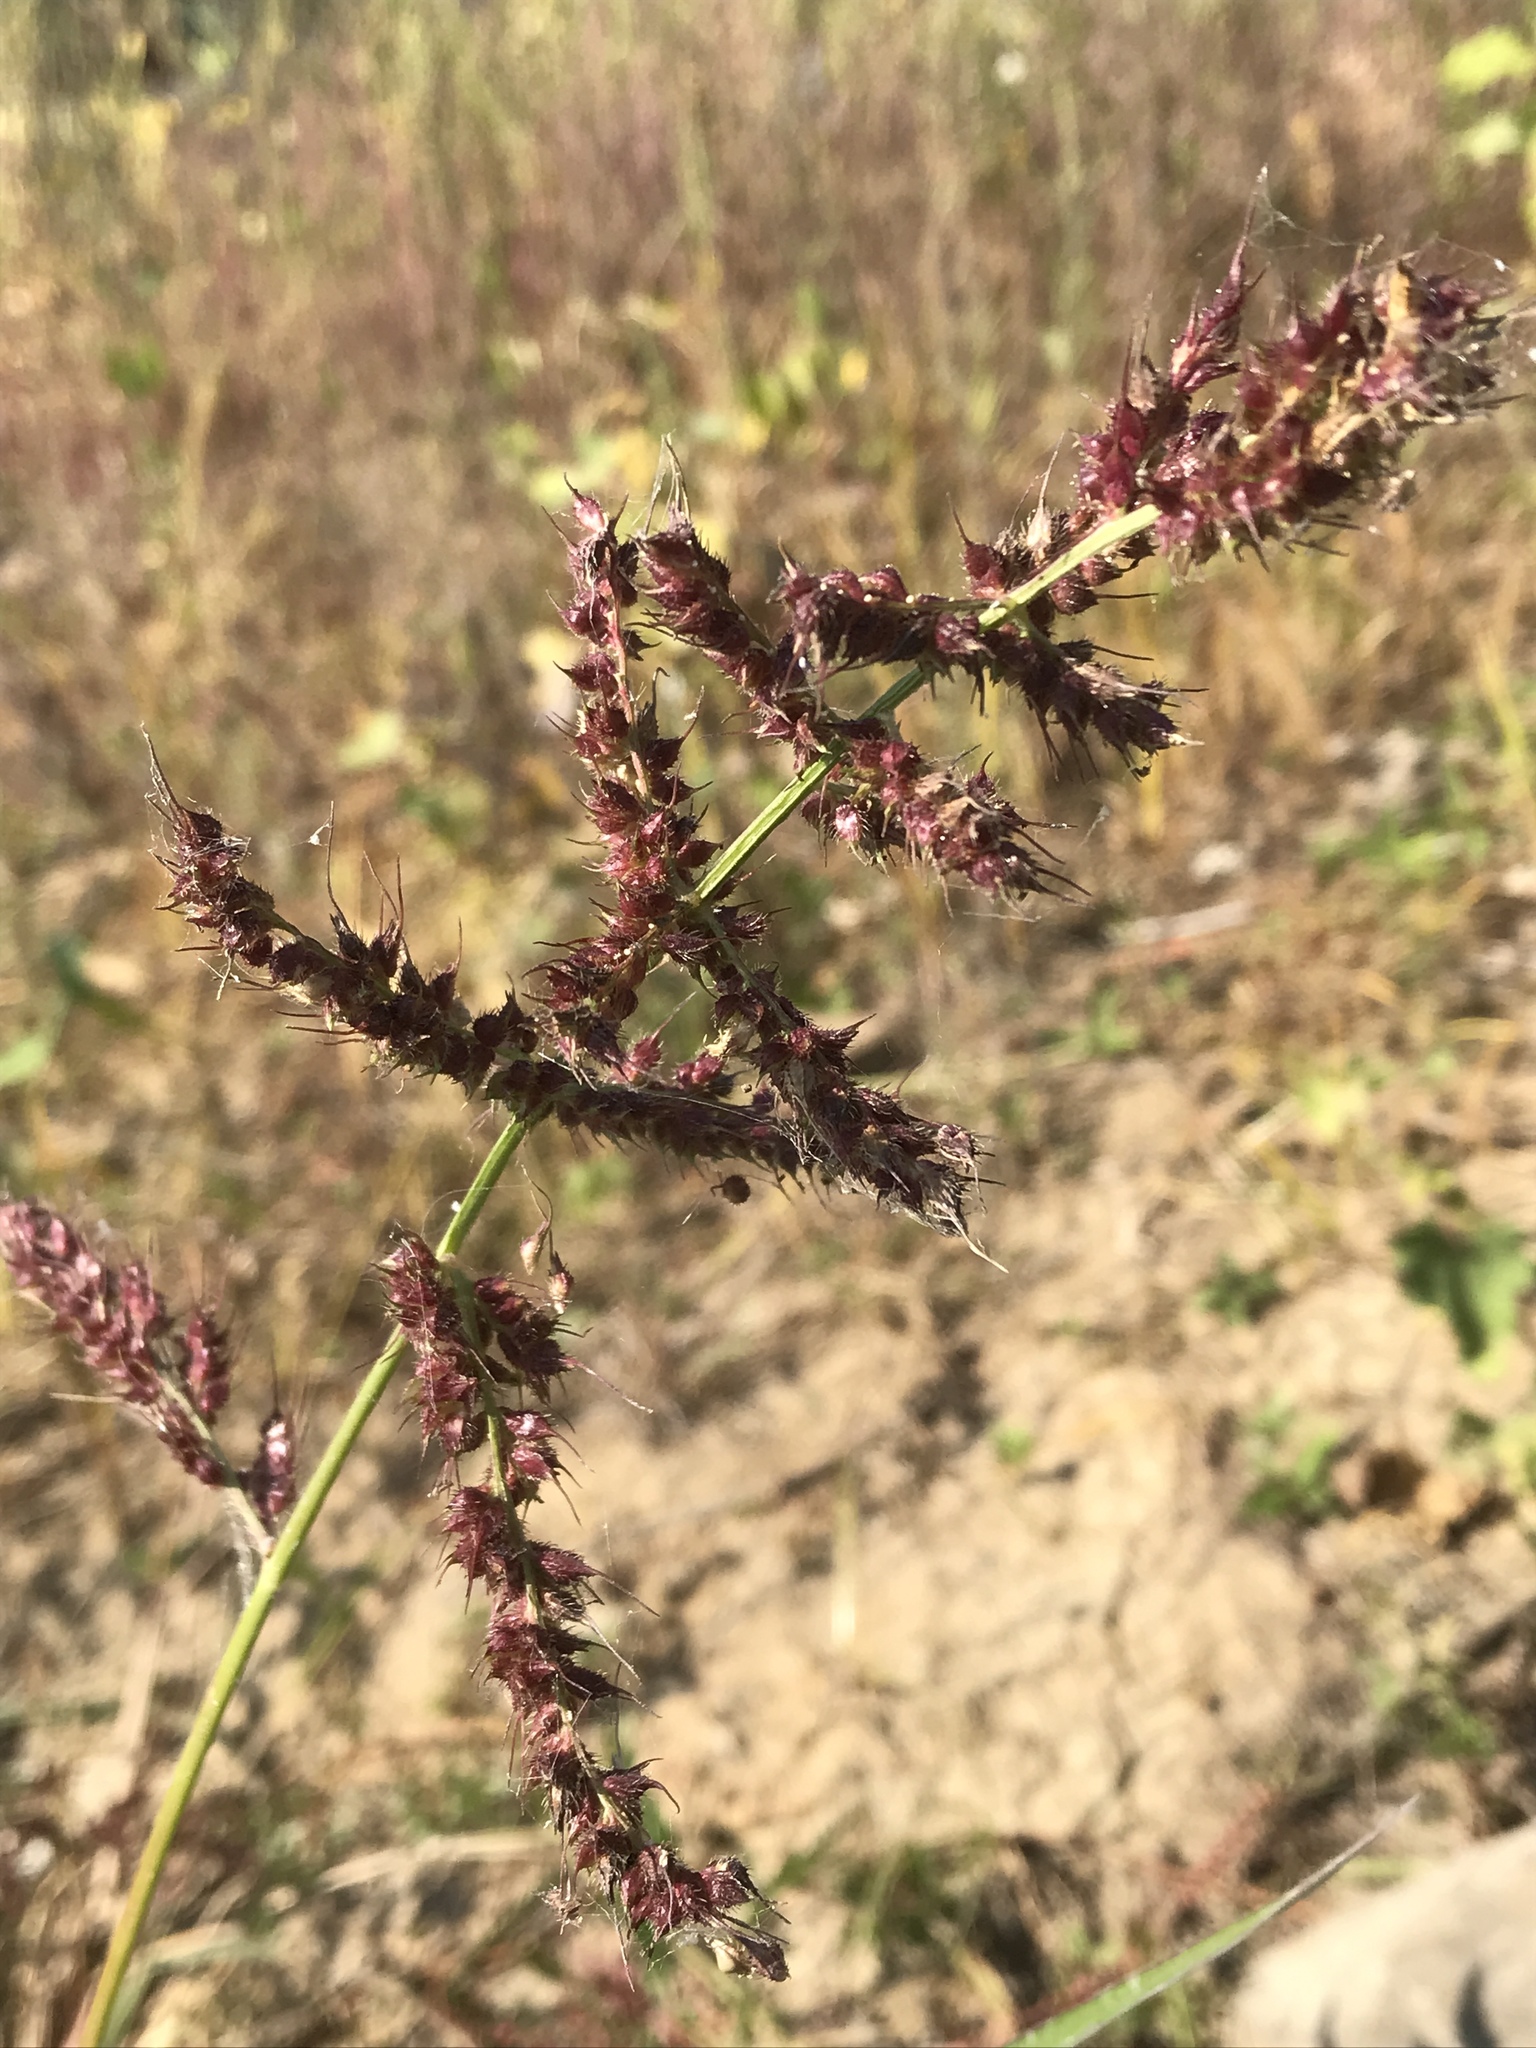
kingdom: Plantae
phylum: Tracheophyta
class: Liliopsida
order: Poales
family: Poaceae
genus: Echinochloa
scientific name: Echinochloa crus-galli
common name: Cockspur
